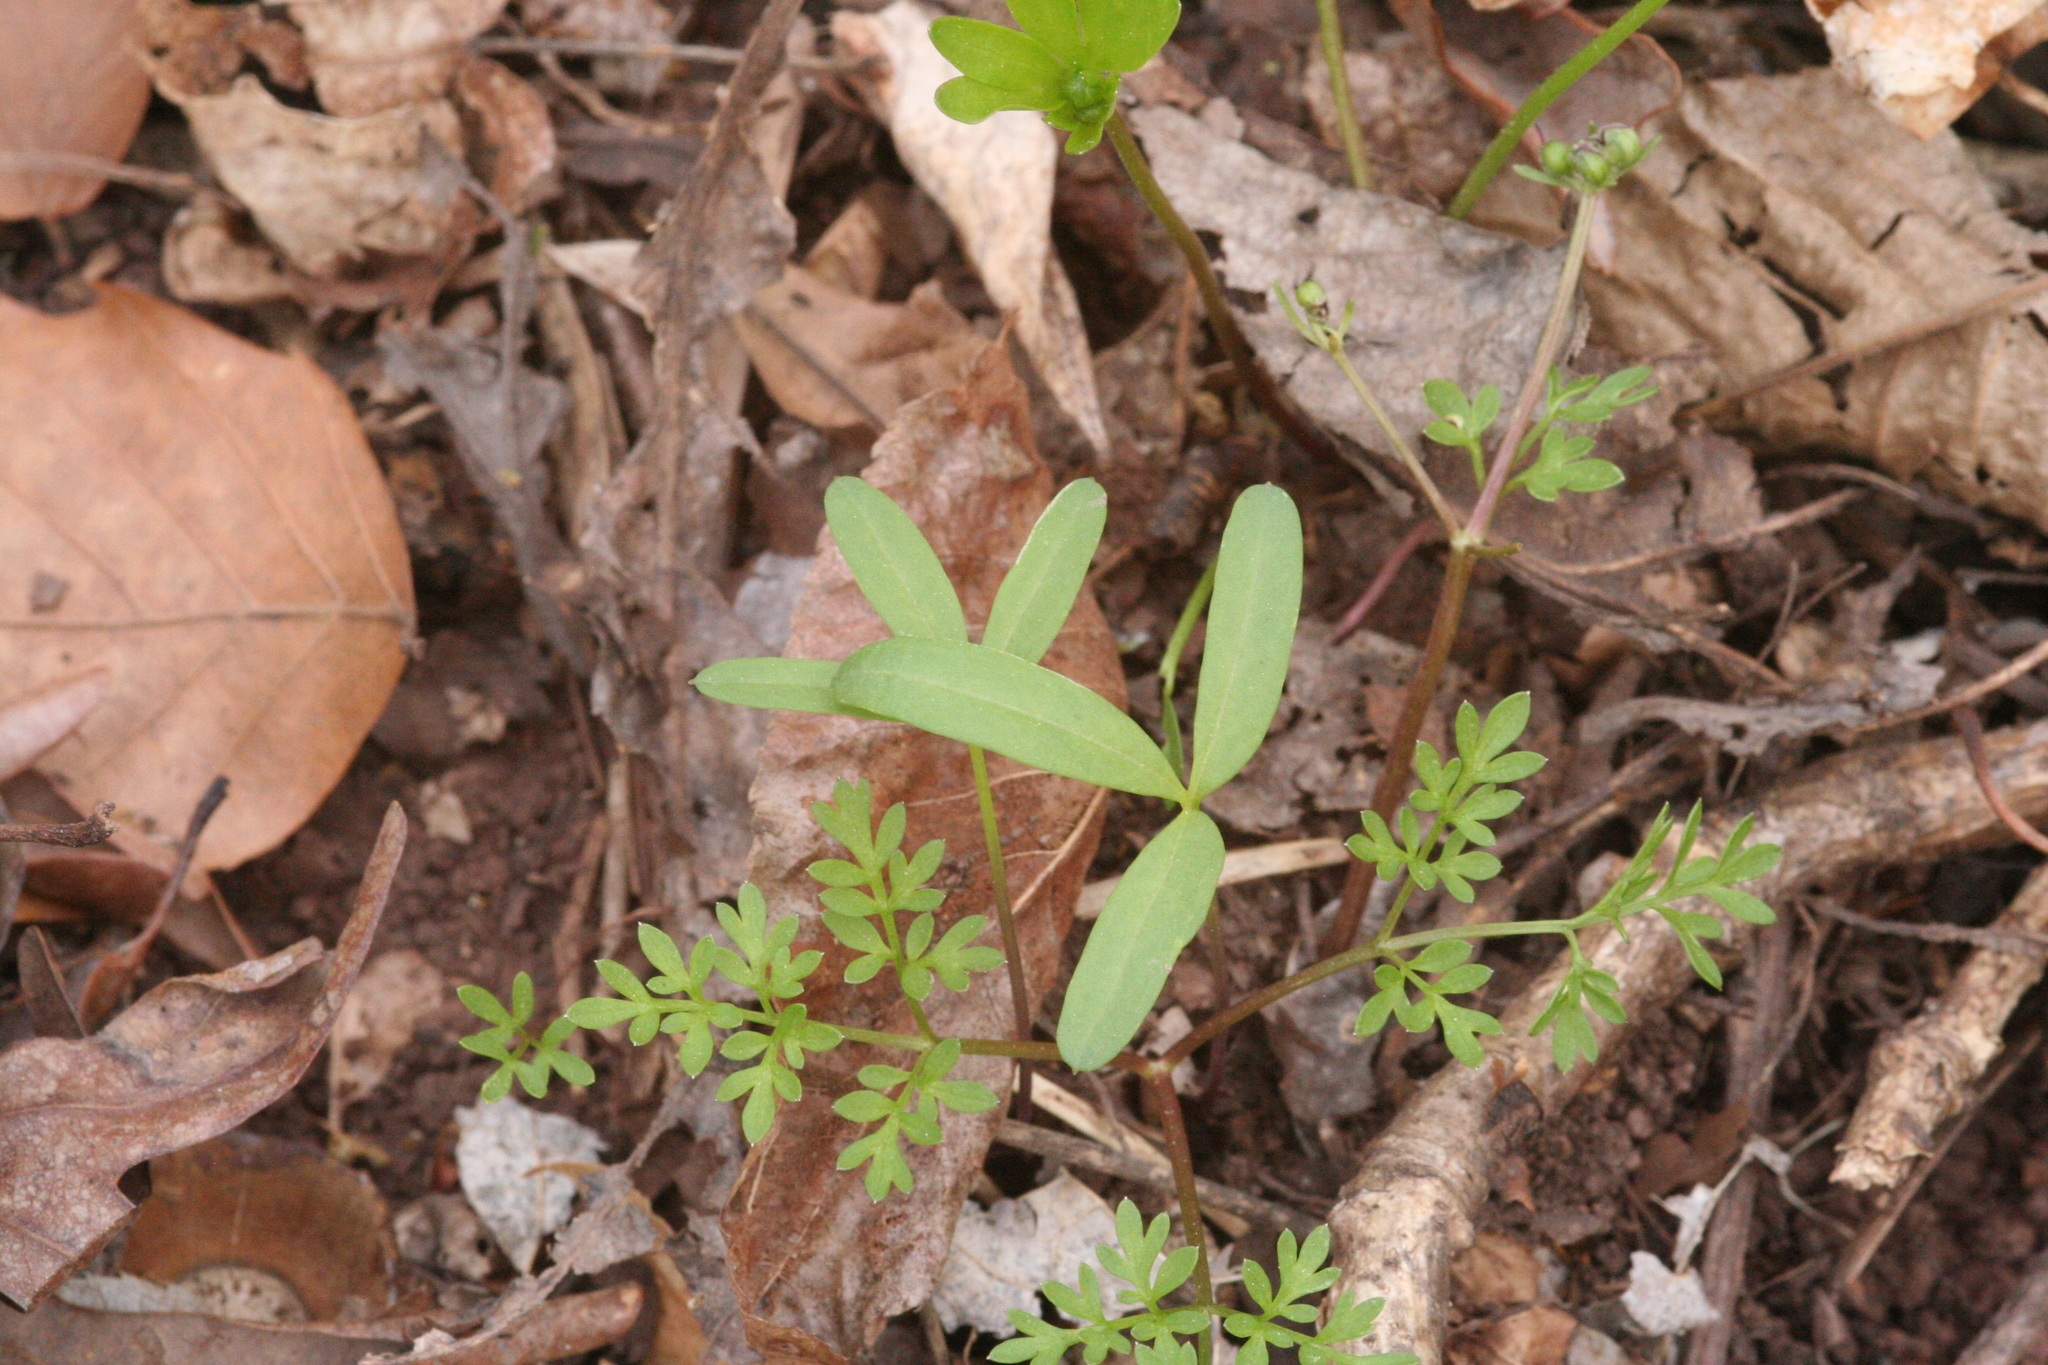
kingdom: Plantae
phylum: Tracheophyta
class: Magnoliopsida
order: Brassicales
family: Limnanthaceae
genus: Floerkea
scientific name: Floerkea proserpinacoides
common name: False mermaid
